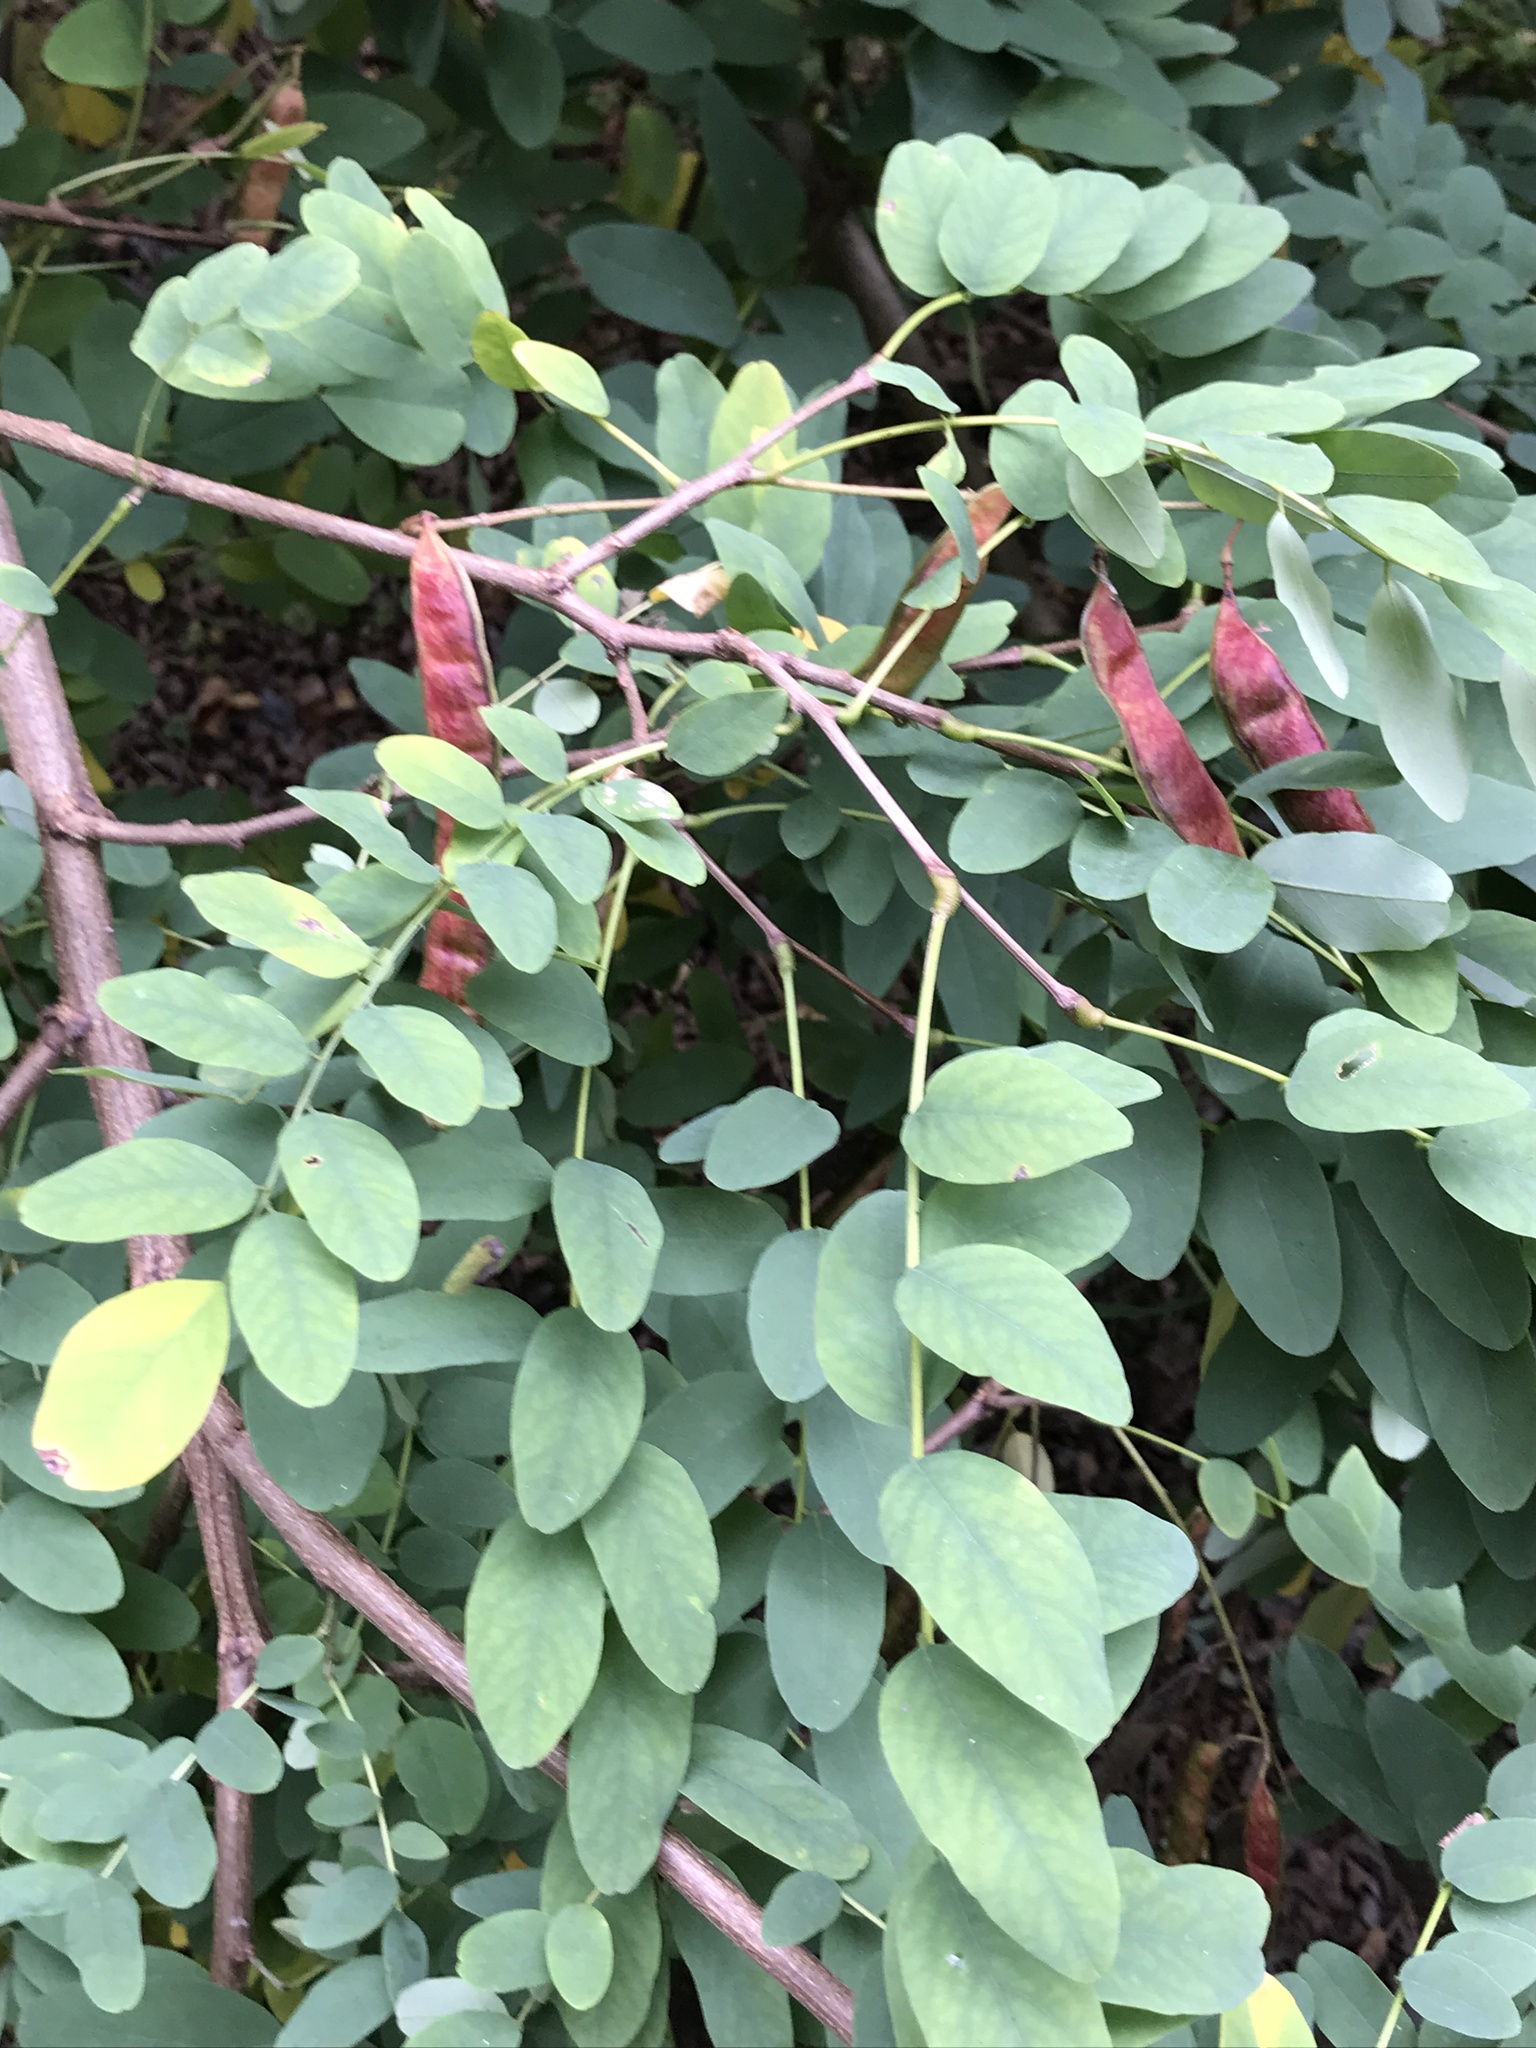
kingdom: Plantae
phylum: Tracheophyta
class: Magnoliopsida
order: Fabales
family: Fabaceae
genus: Robinia
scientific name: Robinia pseudoacacia
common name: Black locust
